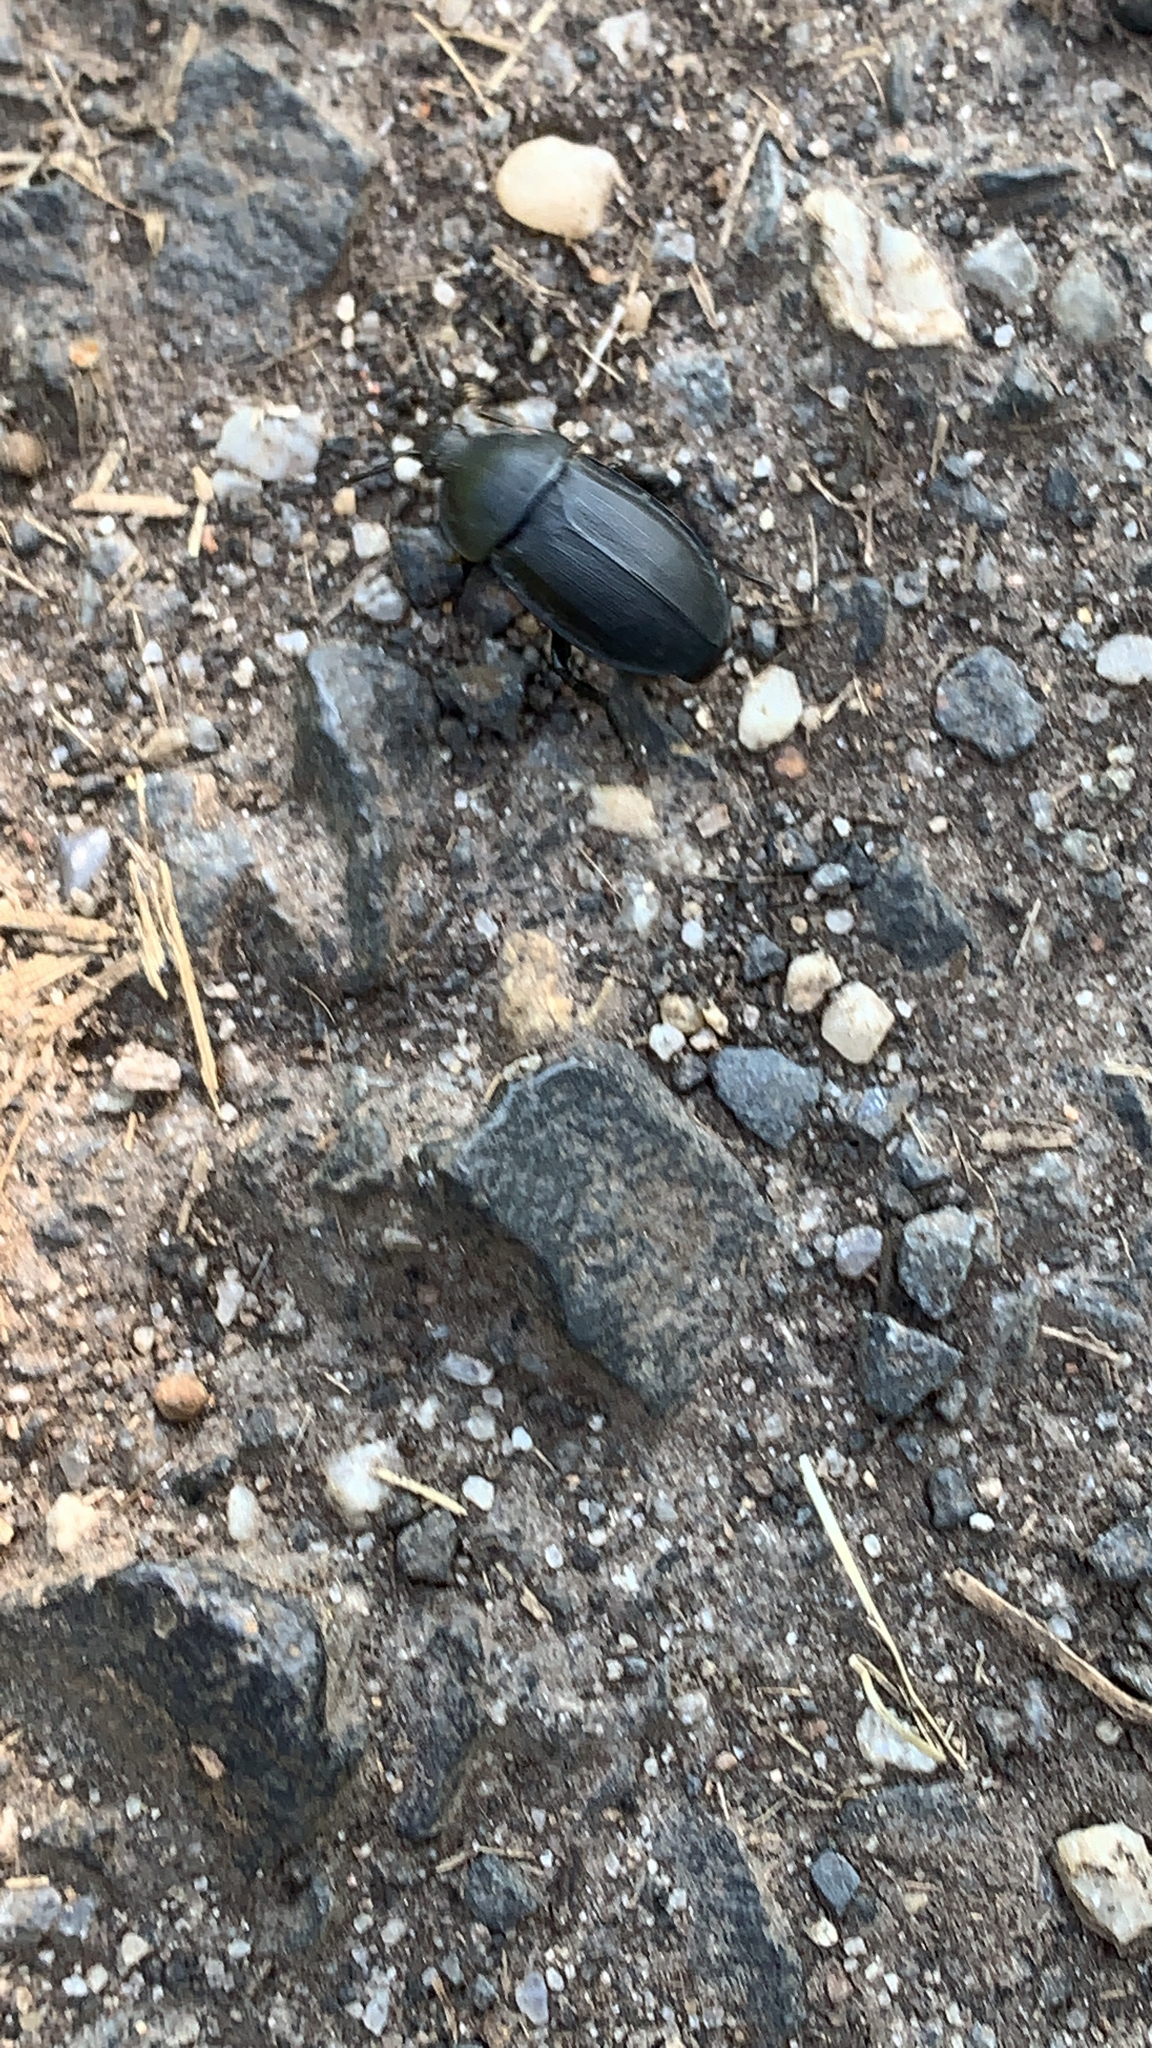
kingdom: Animalia
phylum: Arthropoda
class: Insecta
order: Coleoptera
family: Staphylinidae
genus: Silpha
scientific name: Silpha obscura
